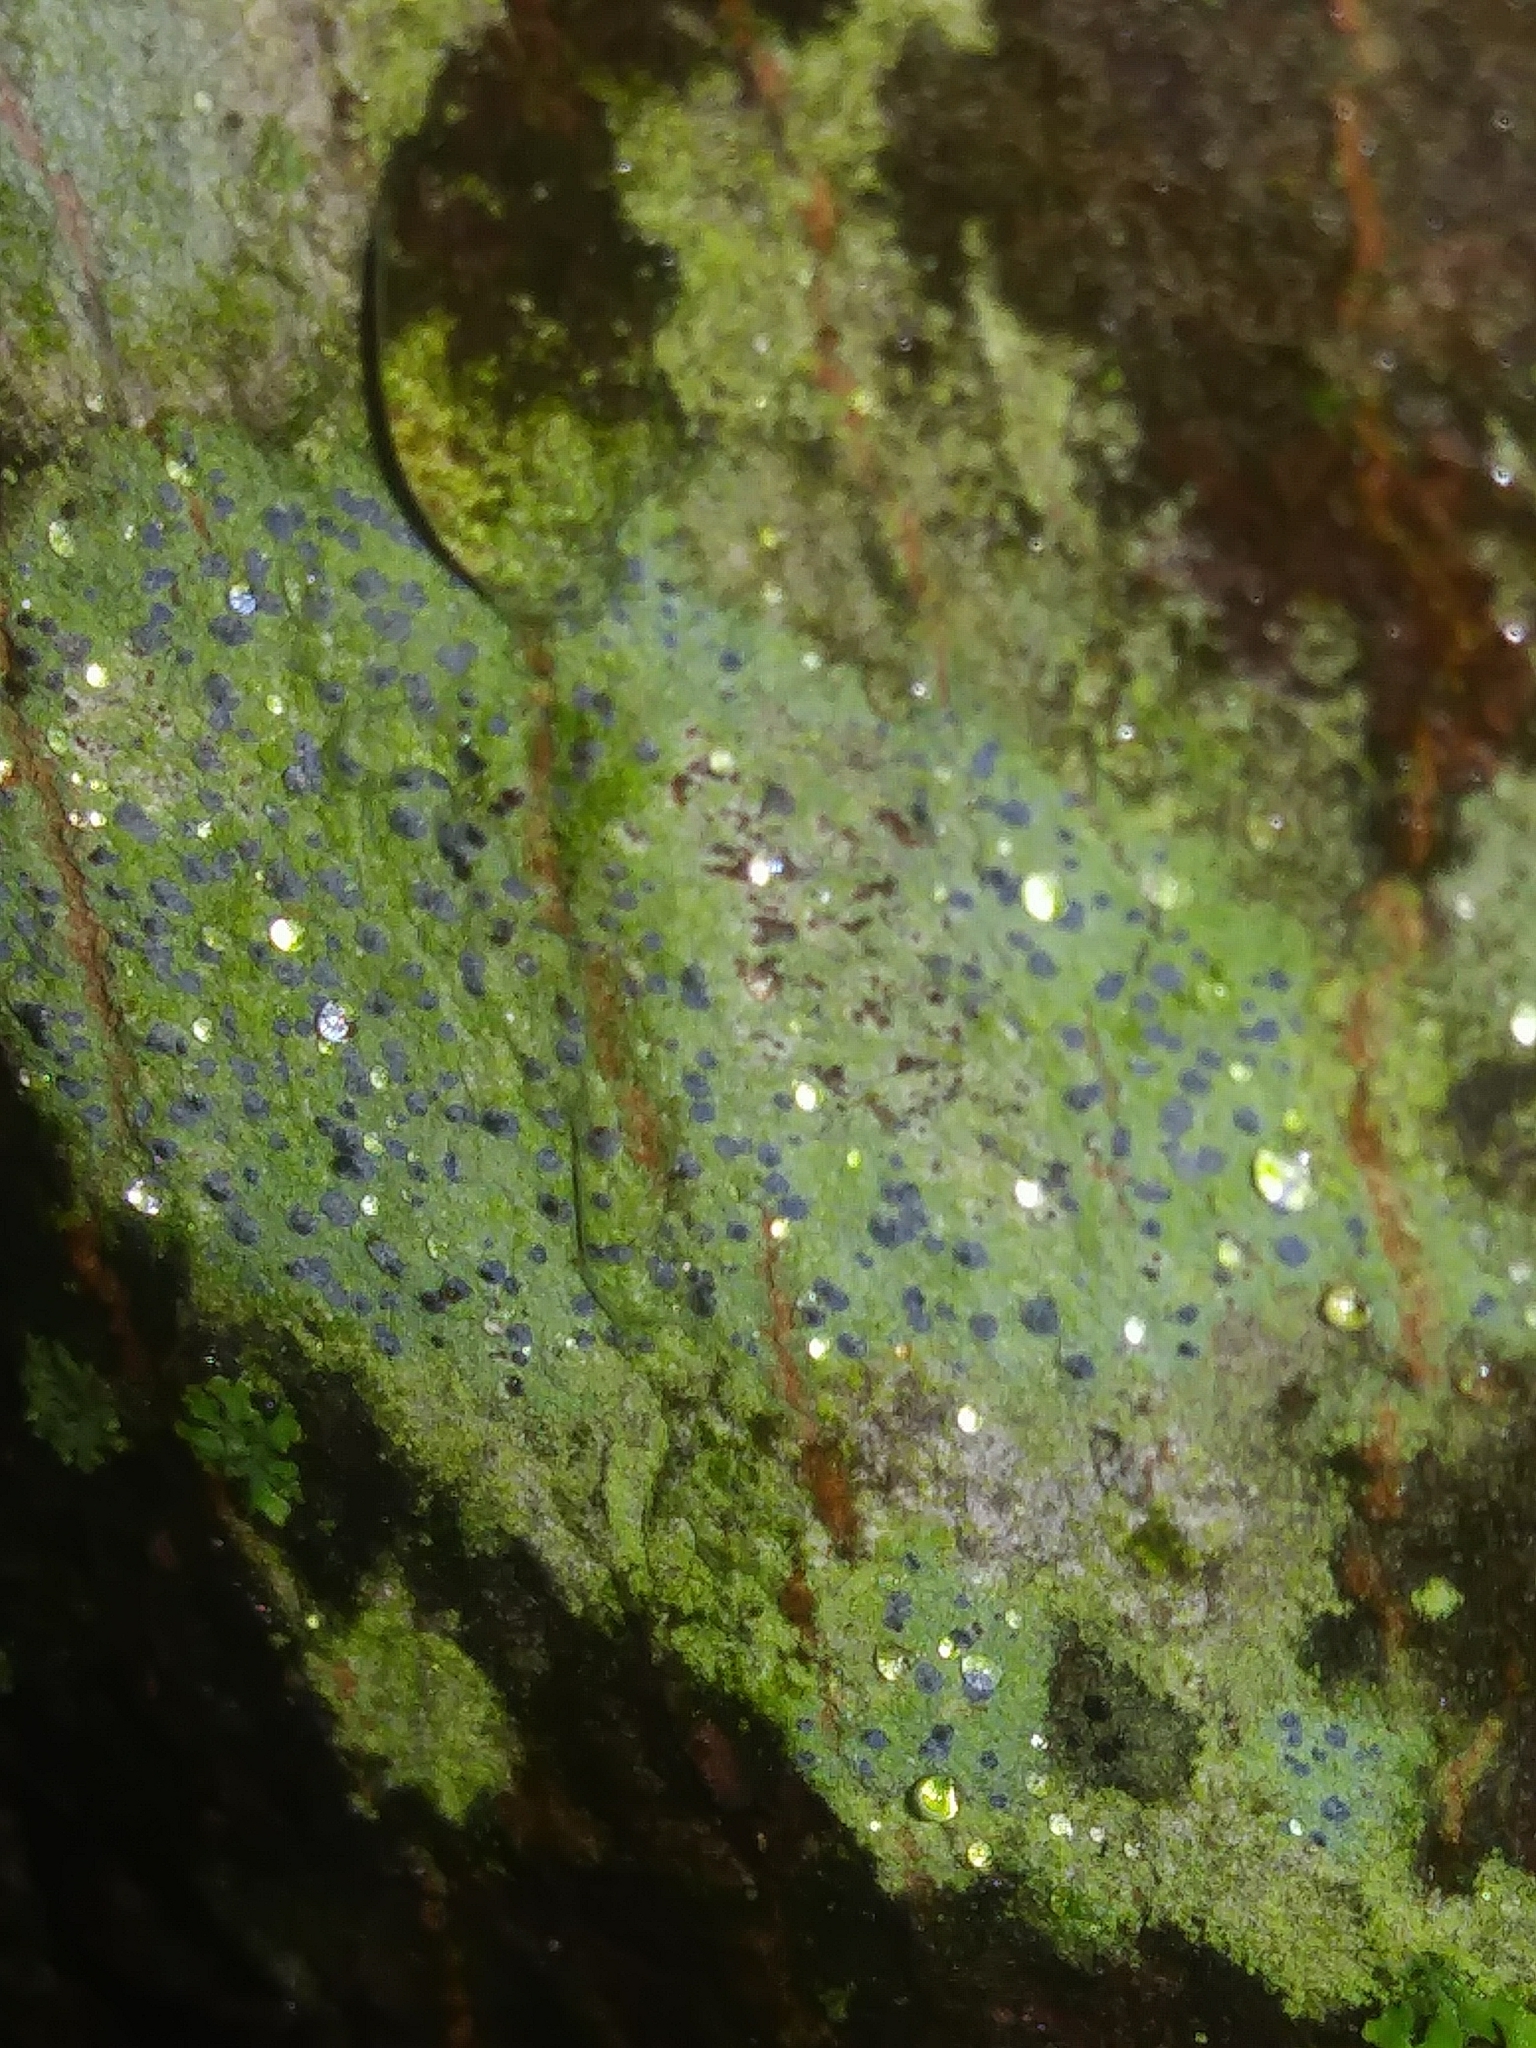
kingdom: Fungi
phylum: Ascomycota
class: Arthoniomycetes
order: Arthoniales
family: Chrysotrichaceae
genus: Chrysothrix
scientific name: Chrysothrix caesia
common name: Frosted comma lichen
